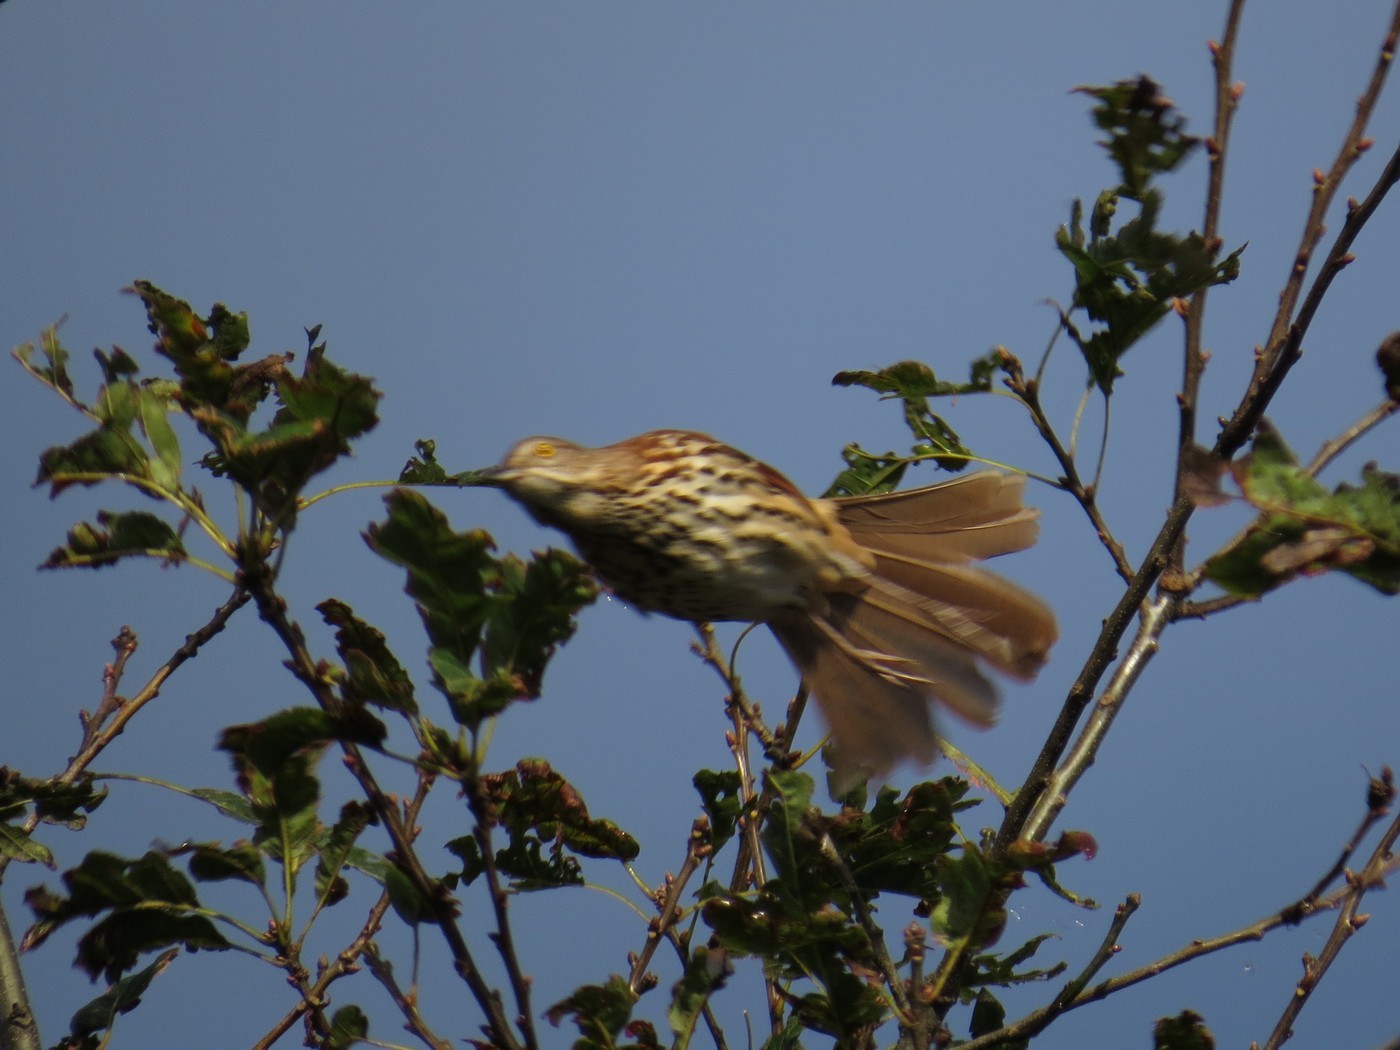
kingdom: Animalia
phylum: Chordata
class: Aves
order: Passeriformes
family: Mimidae
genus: Toxostoma
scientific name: Toxostoma rufum
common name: Brown thrasher
